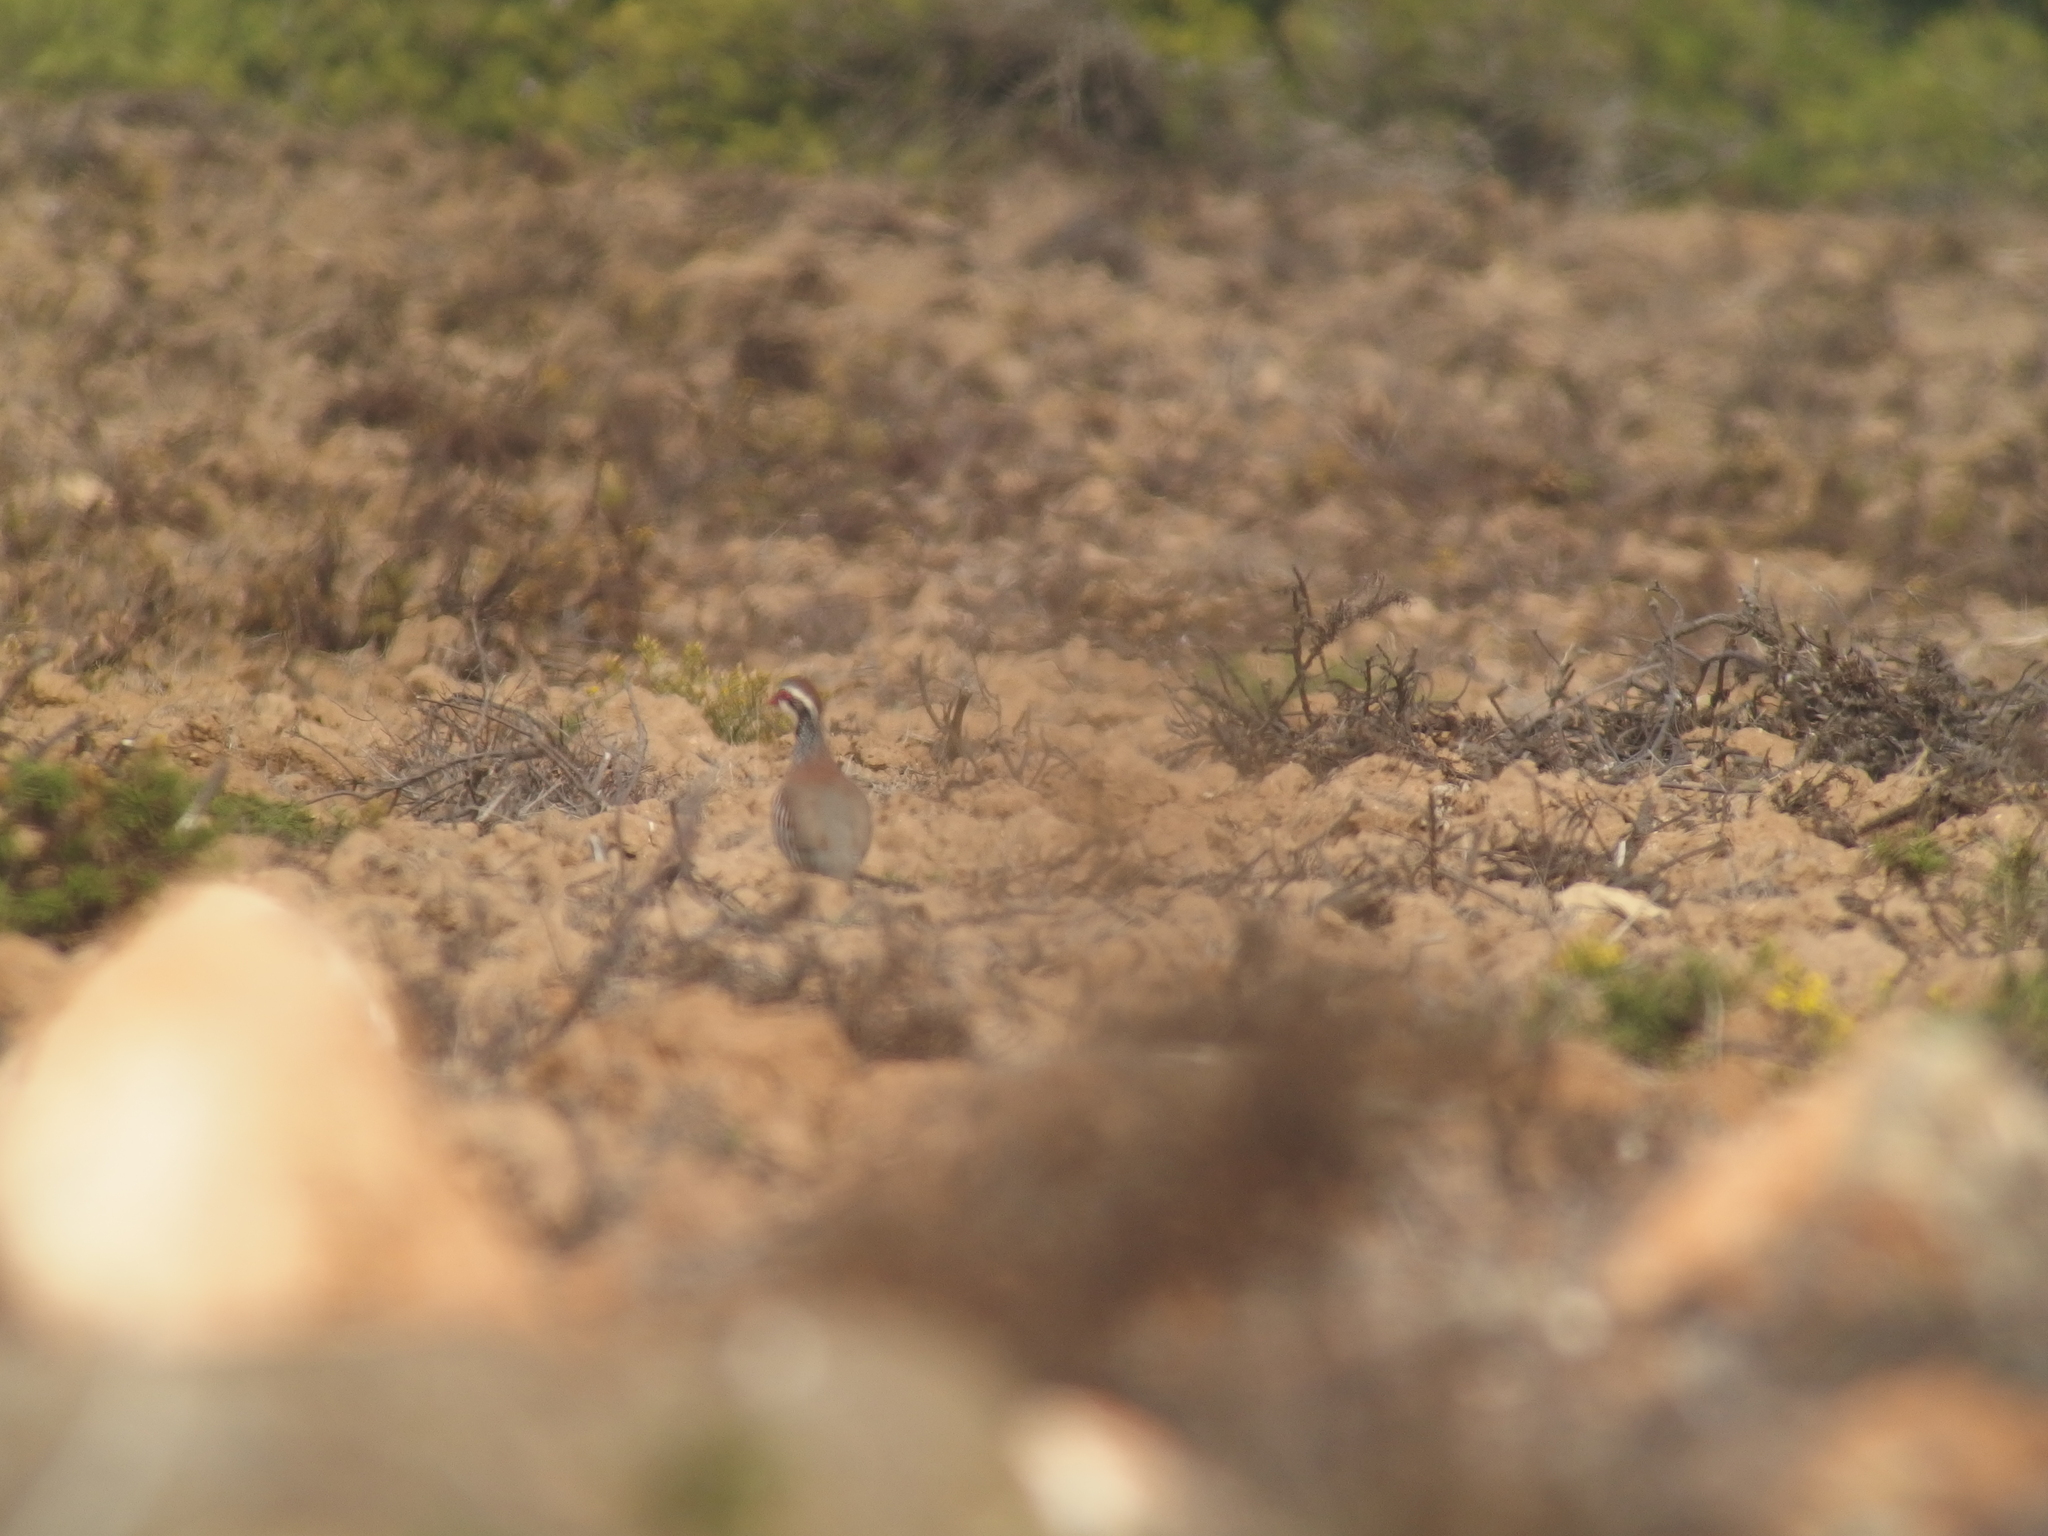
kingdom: Animalia
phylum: Chordata
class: Aves
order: Galliformes
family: Phasianidae
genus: Alectoris
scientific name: Alectoris rufa
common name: Red-legged partridge
